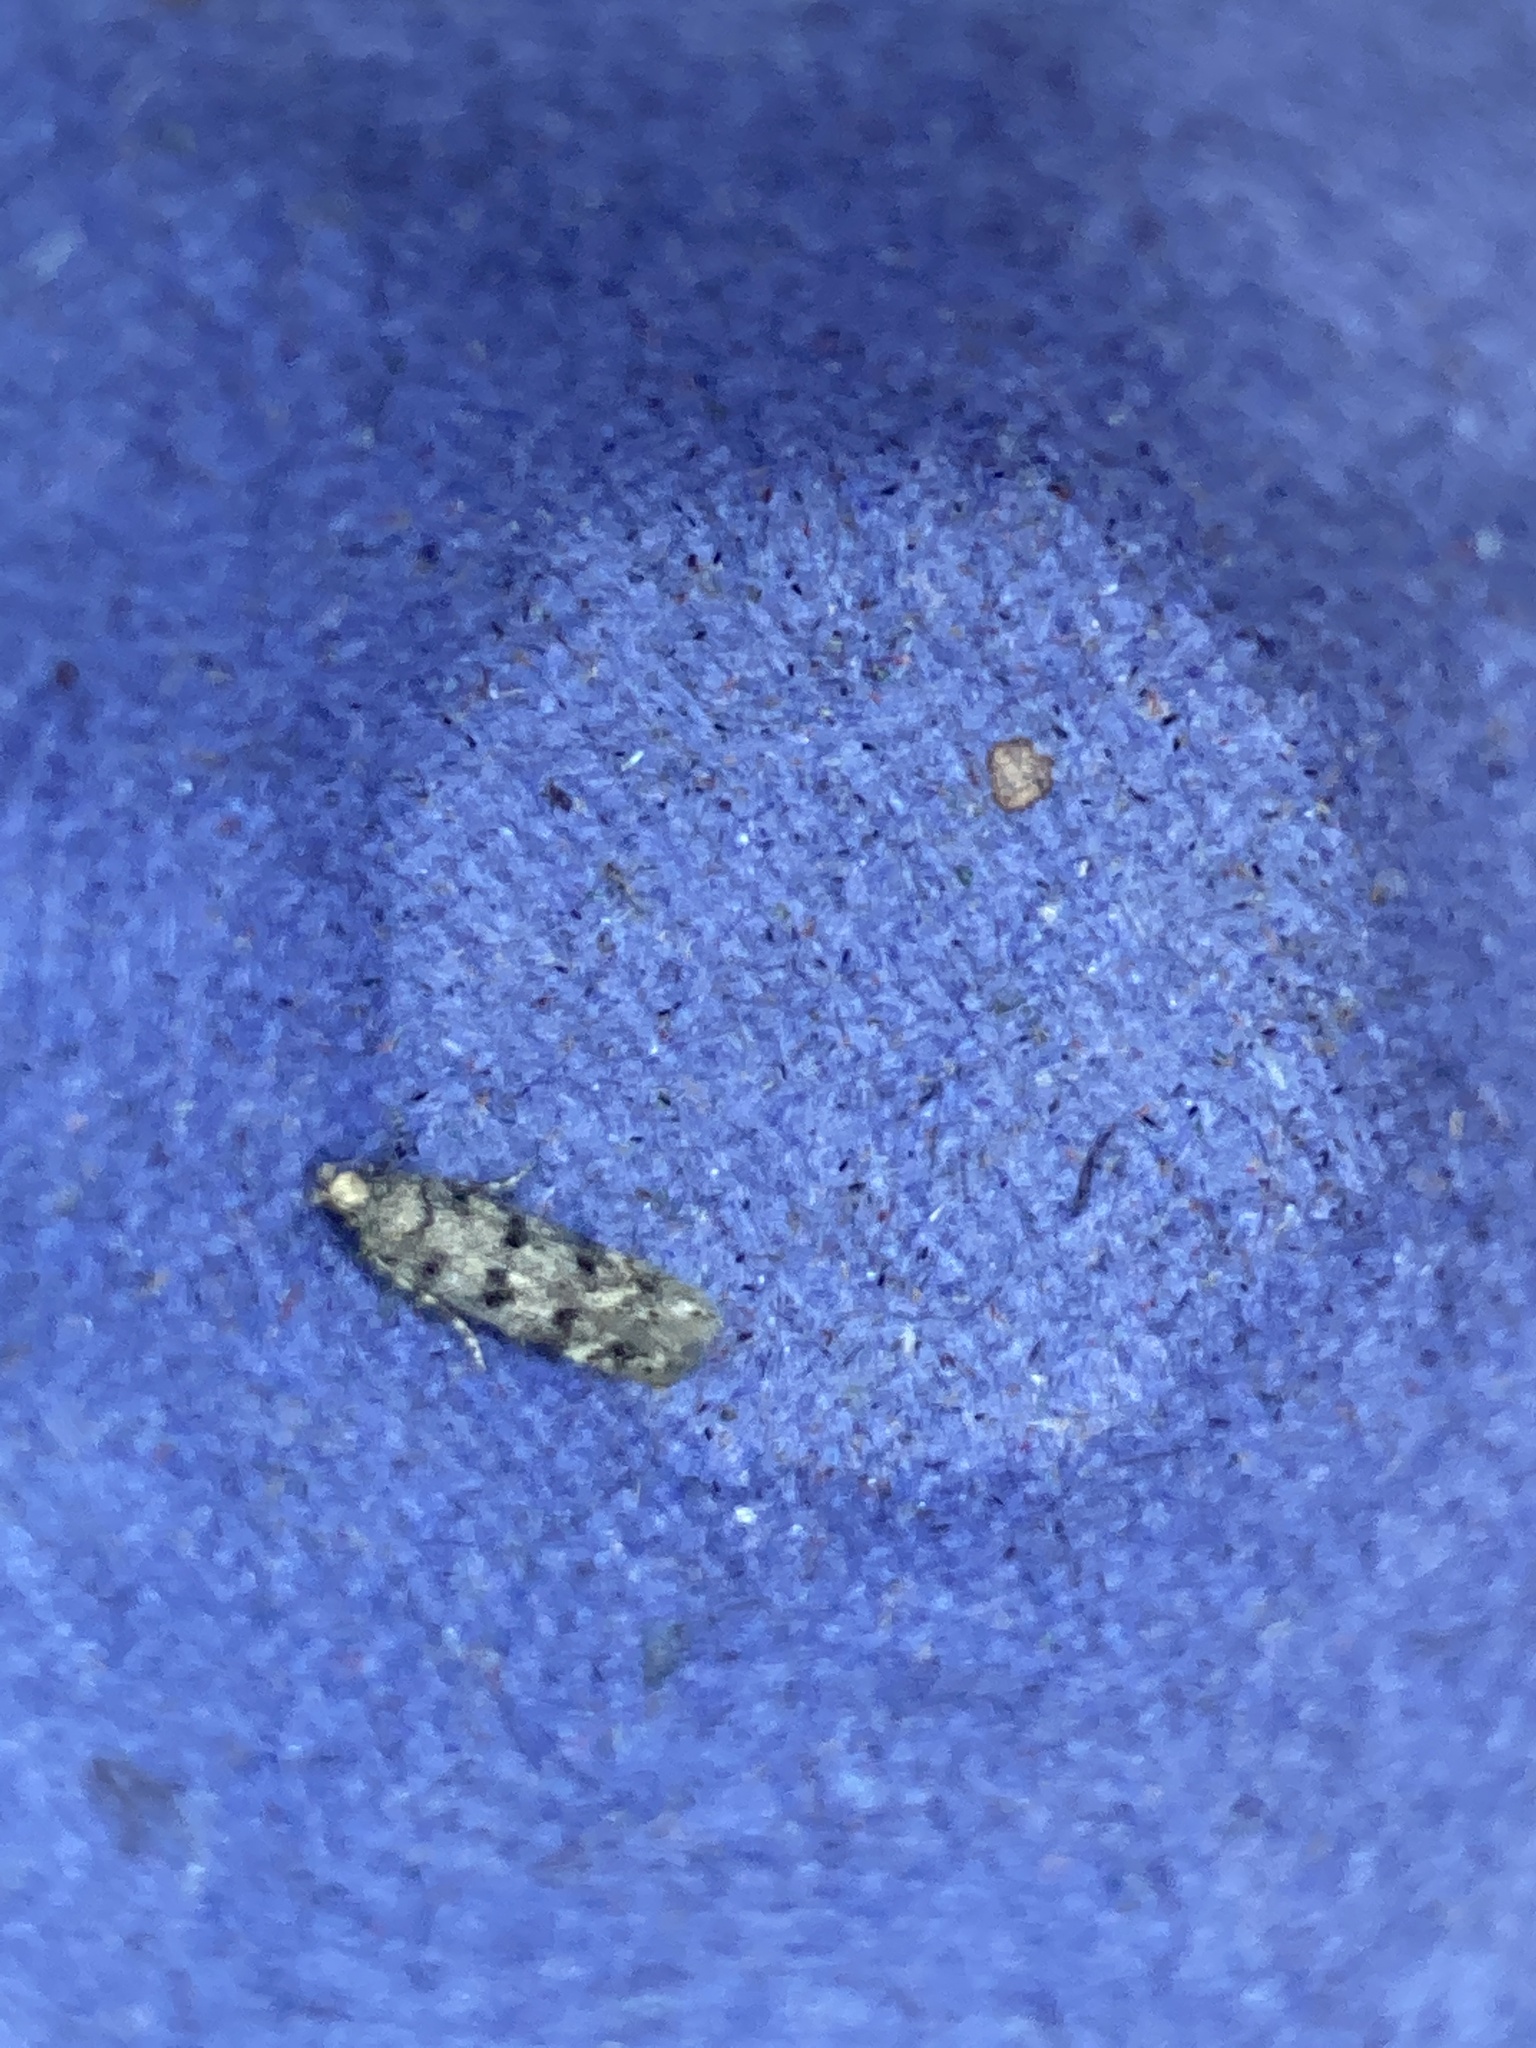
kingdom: Animalia
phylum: Arthropoda
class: Insecta
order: Lepidoptera
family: Gelechiidae
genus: Bryotropha
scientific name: Bryotropha domestica
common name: House groundling
